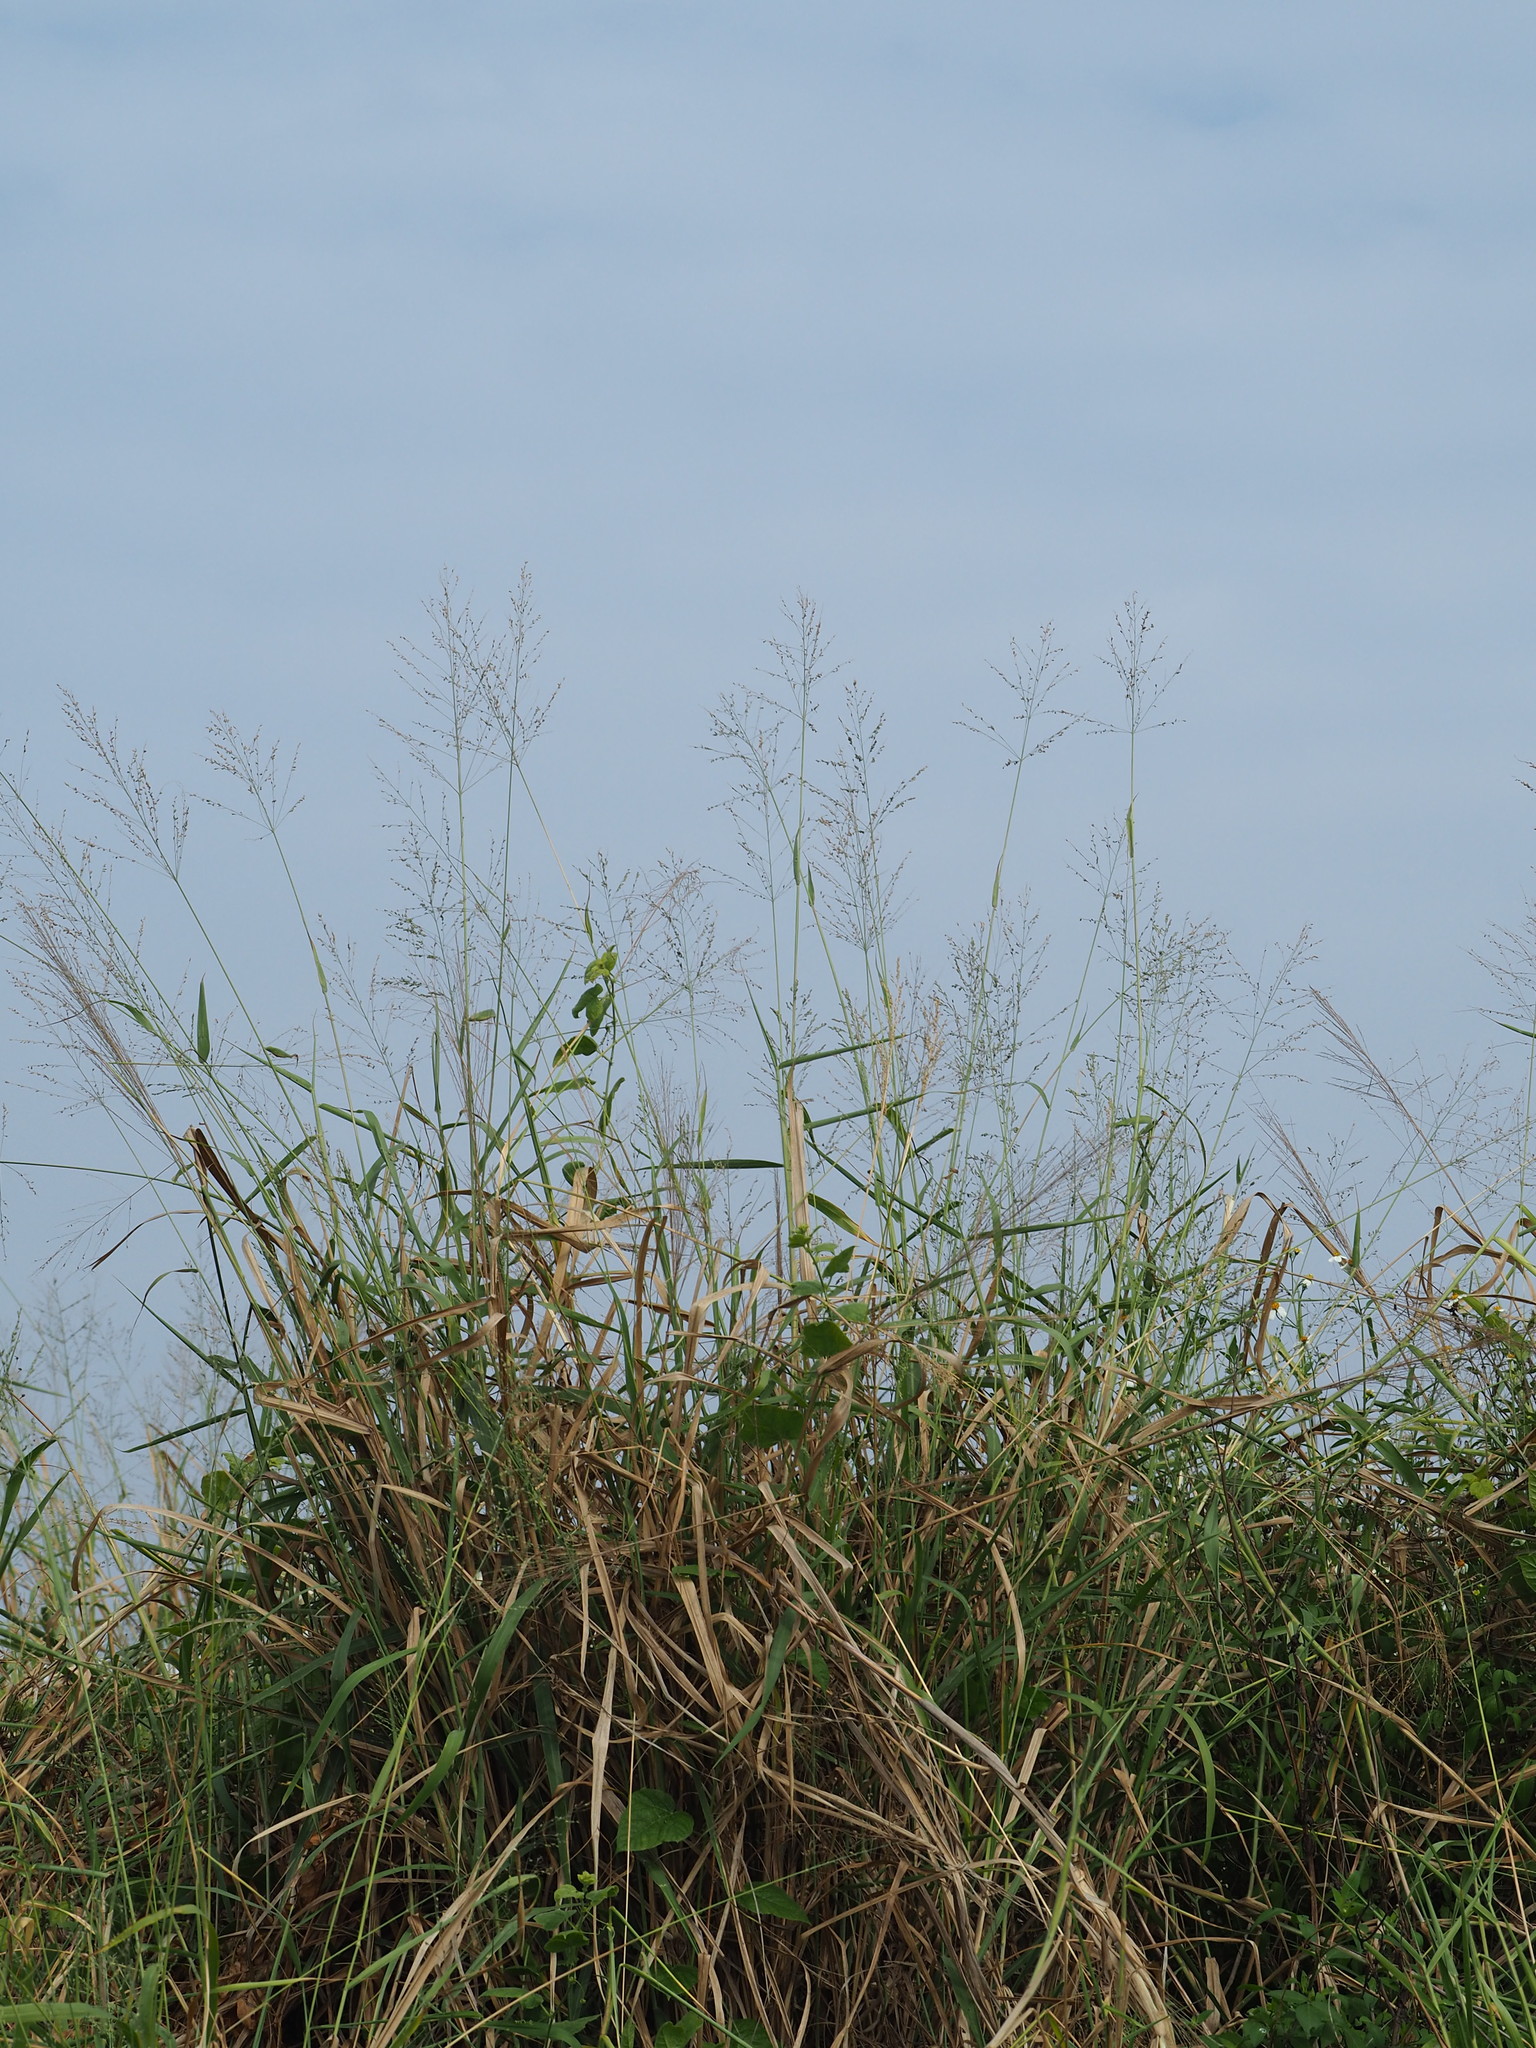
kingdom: Plantae
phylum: Tracheophyta
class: Liliopsida
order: Poales
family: Poaceae
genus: Megathyrsus
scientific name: Megathyrsus maximus
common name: Guineagrass
